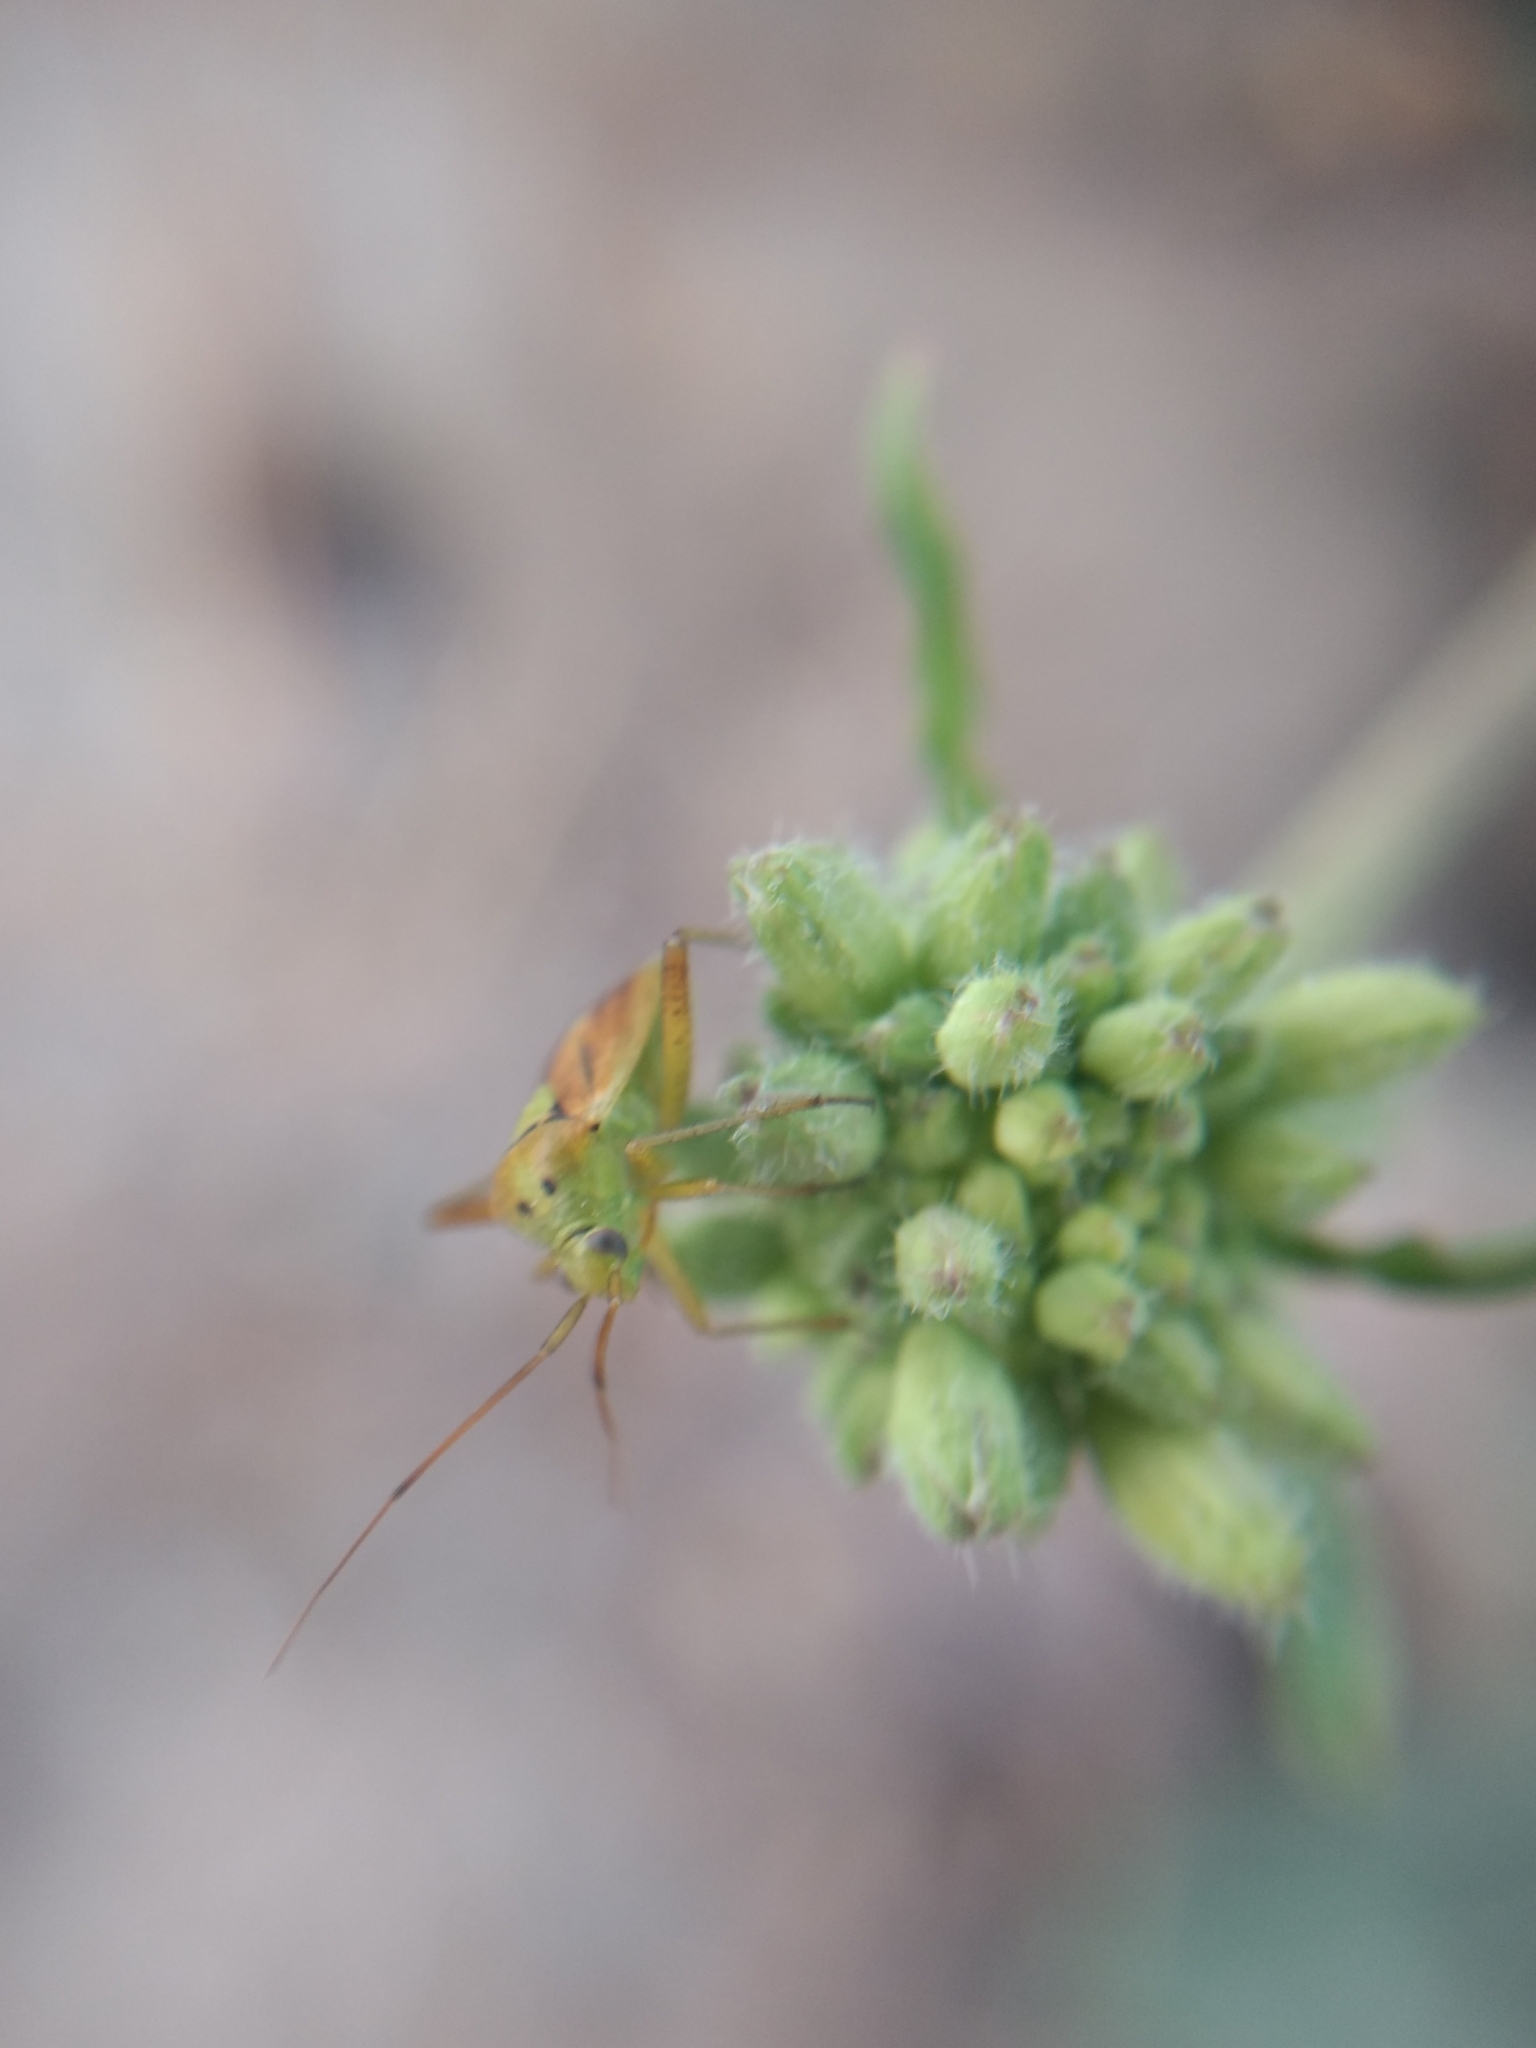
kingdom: Animalia
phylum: Arthropoda
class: Insecta
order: Hemiptera
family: Miridae
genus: Closterotomus
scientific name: Closterotomus norvegicus
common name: Plant bug
